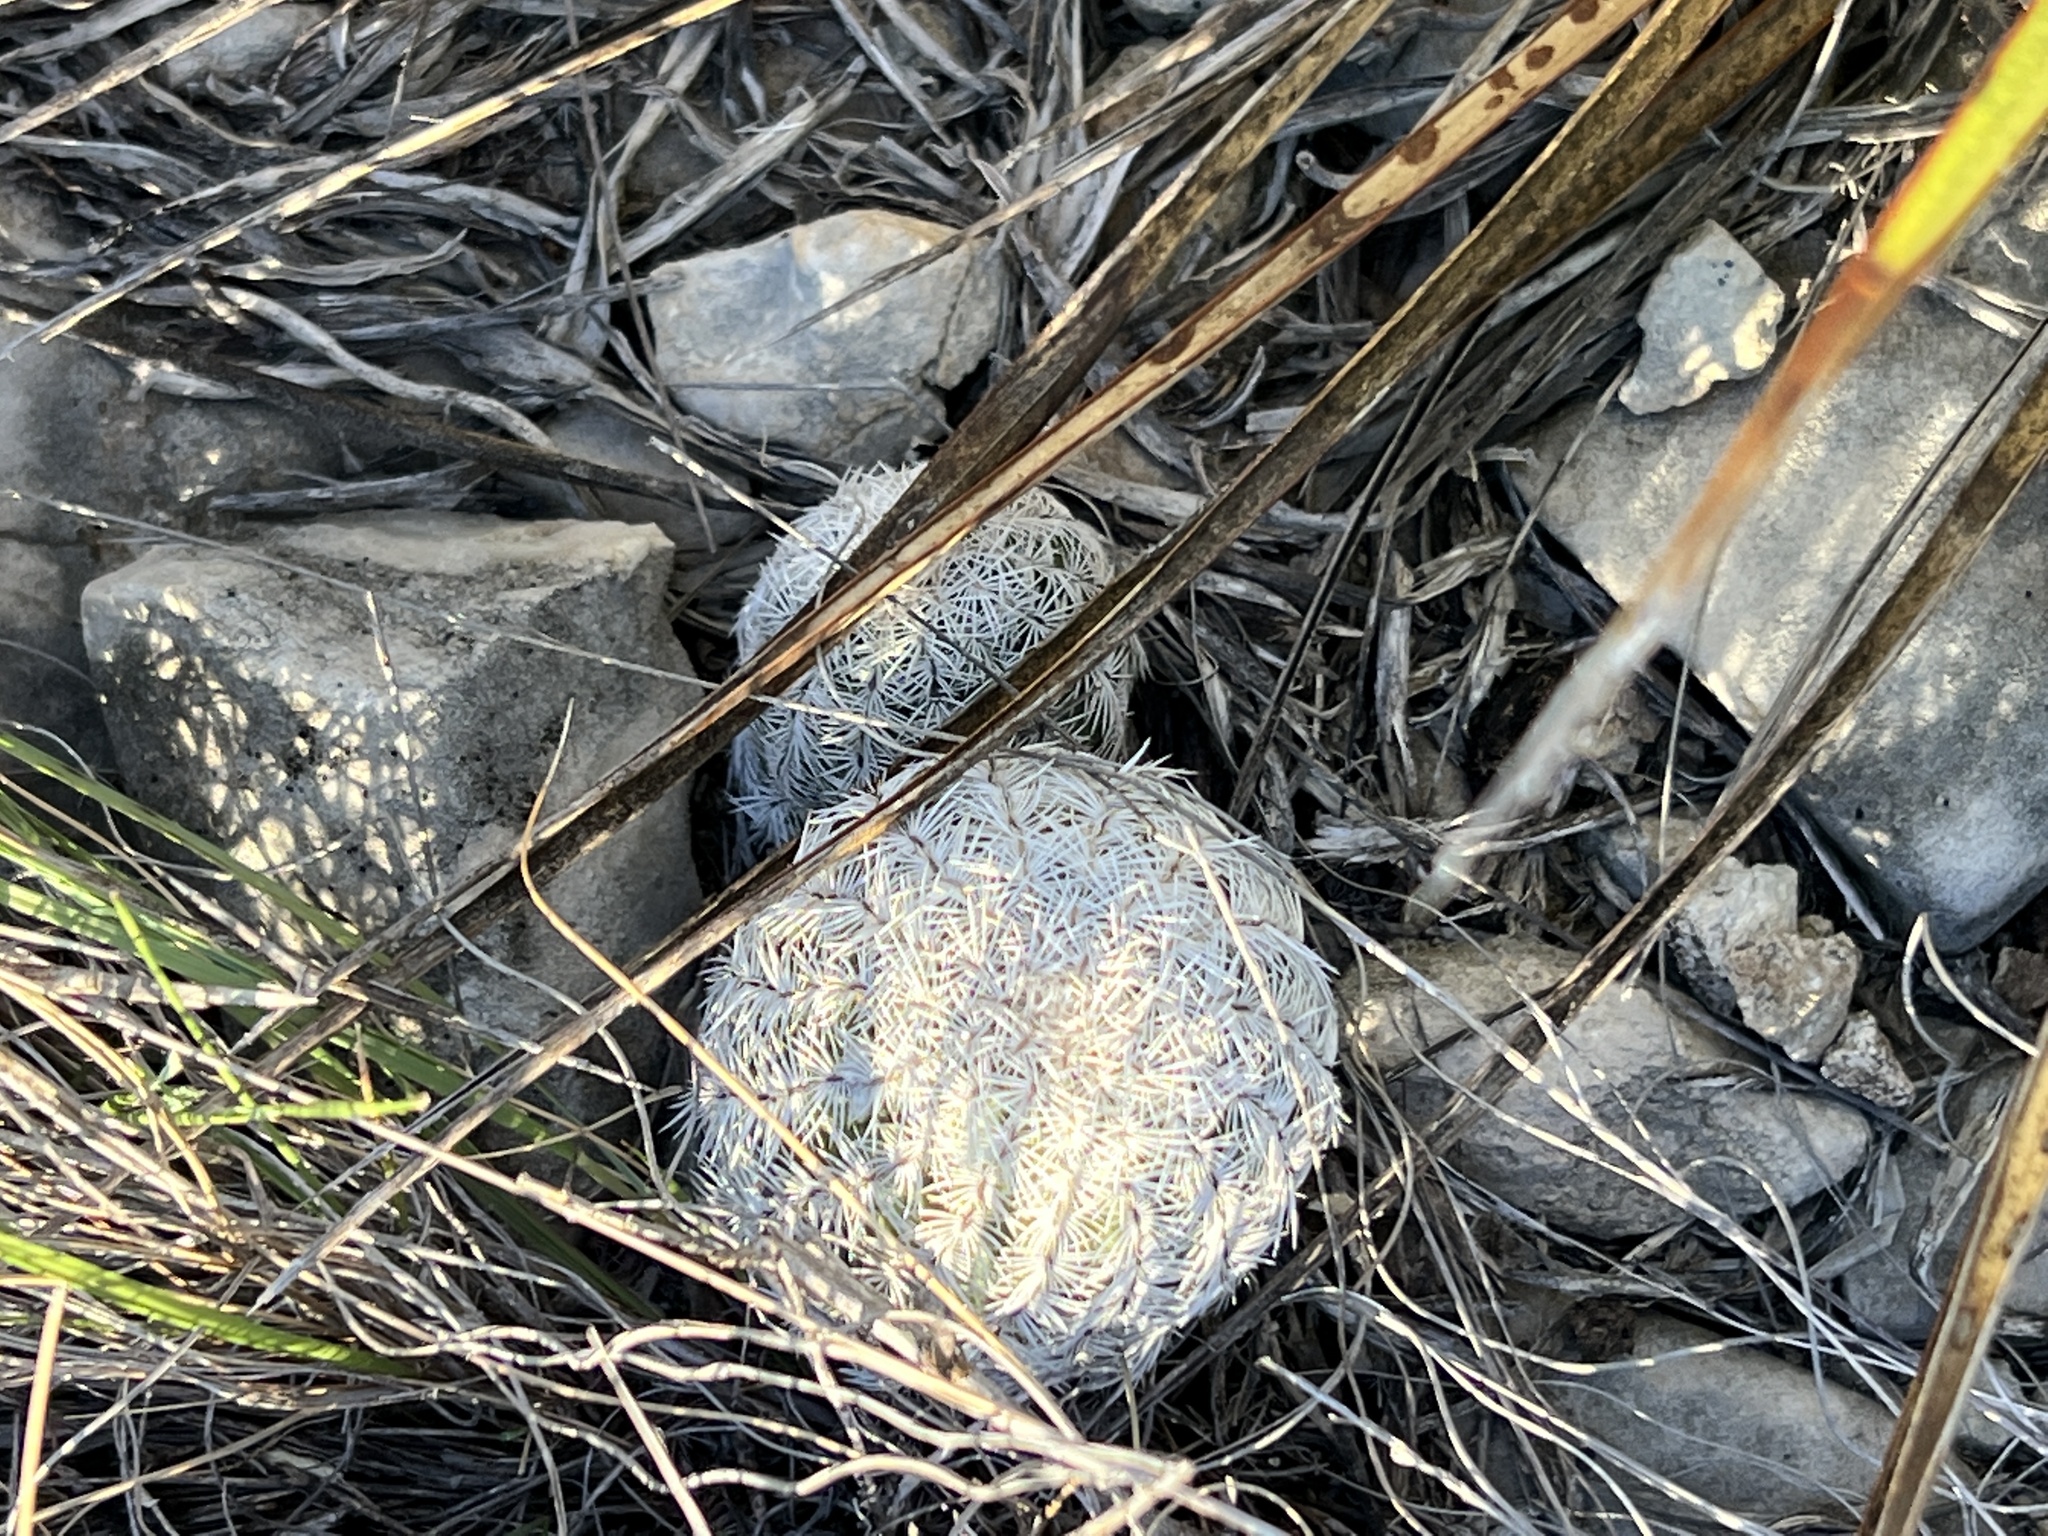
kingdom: Plantae
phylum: Tracheophyta
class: Magnoliopsida
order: Caryophyllales
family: Cactaceae
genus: Echinocereus
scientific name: Echinocereus reichenbachii
